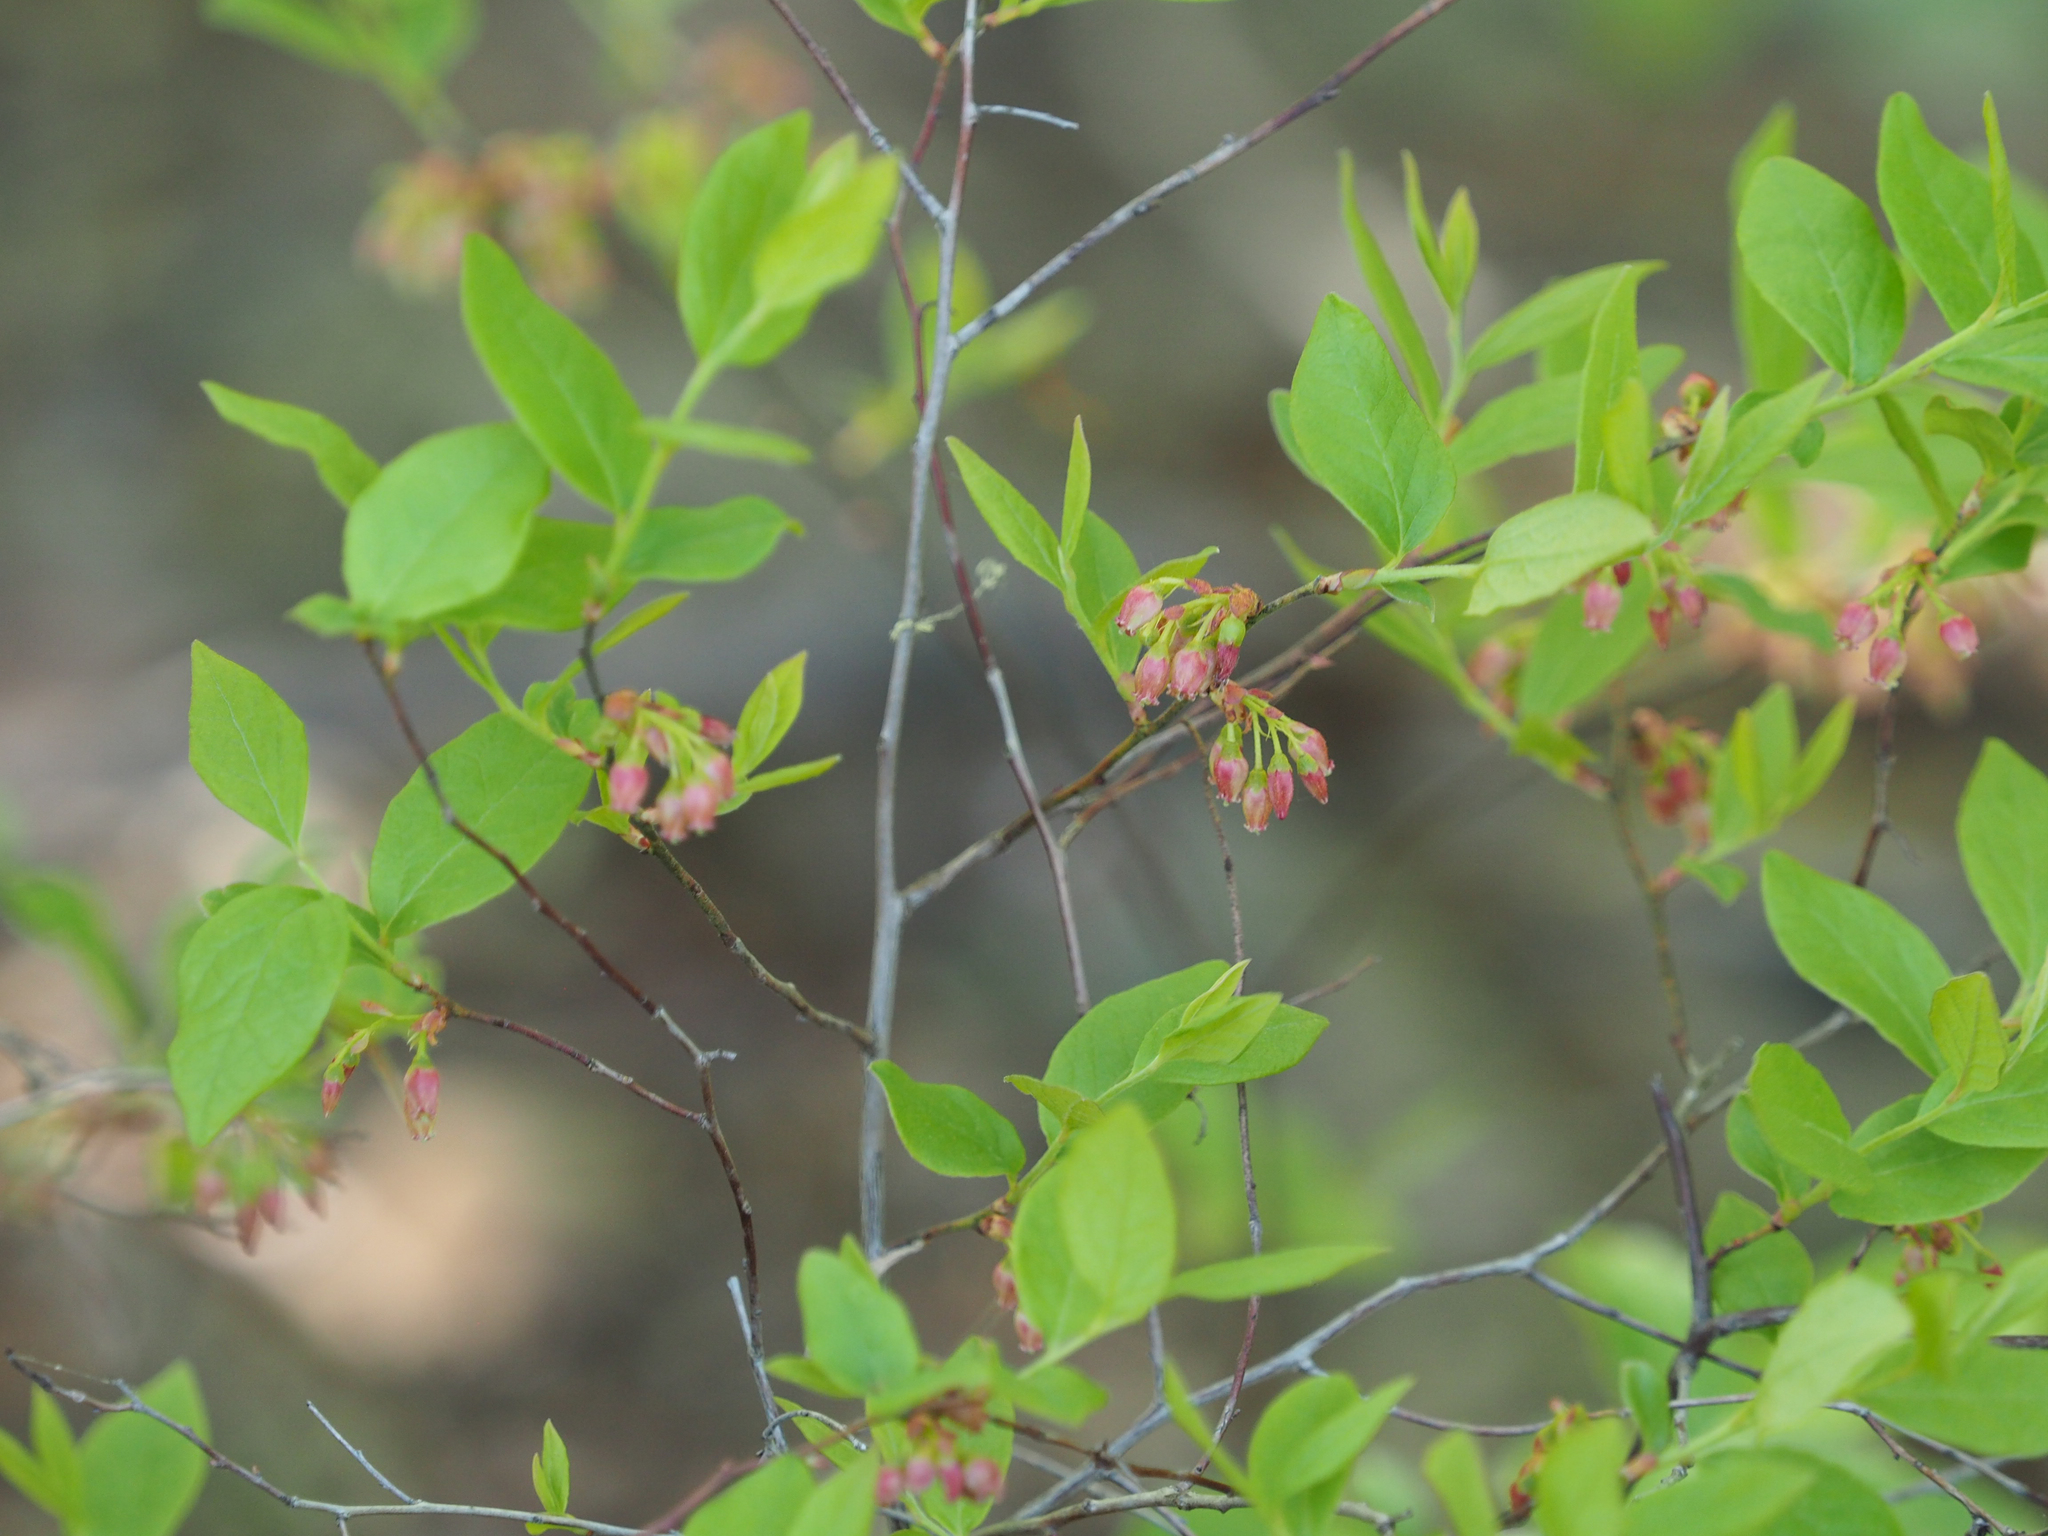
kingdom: Plantae
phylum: Tracheophyta
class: Magnoliopsida
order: Ericales
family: Ericaceae
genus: Gaylussacia
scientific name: Gaylussacia baccata
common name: Black huckleberry
